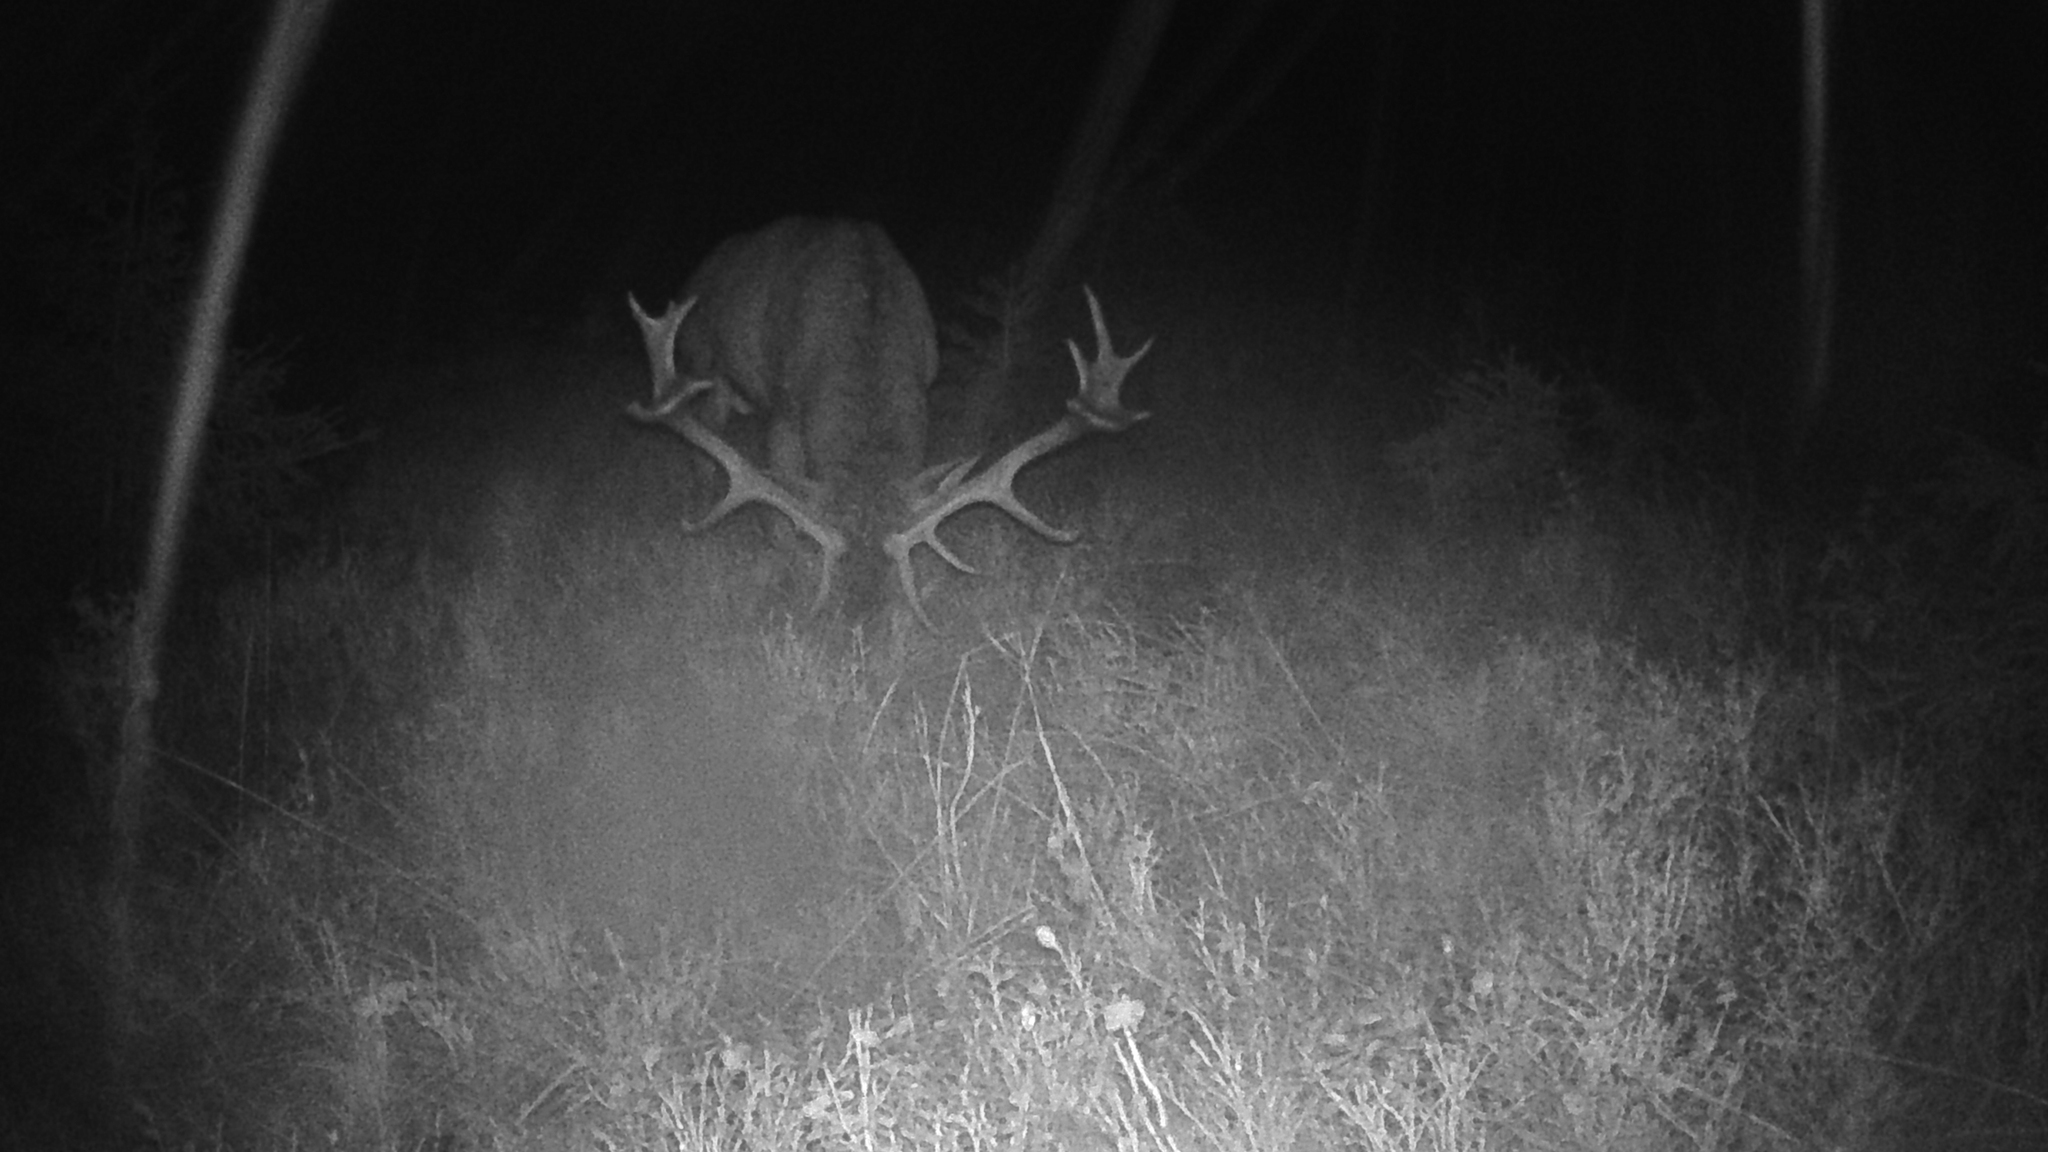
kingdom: Animalia
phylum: Chordata
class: Mammalia
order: Artiodactyla
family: Cervidae
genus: Cervus
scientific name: Cervus elaphus
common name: Red deer
